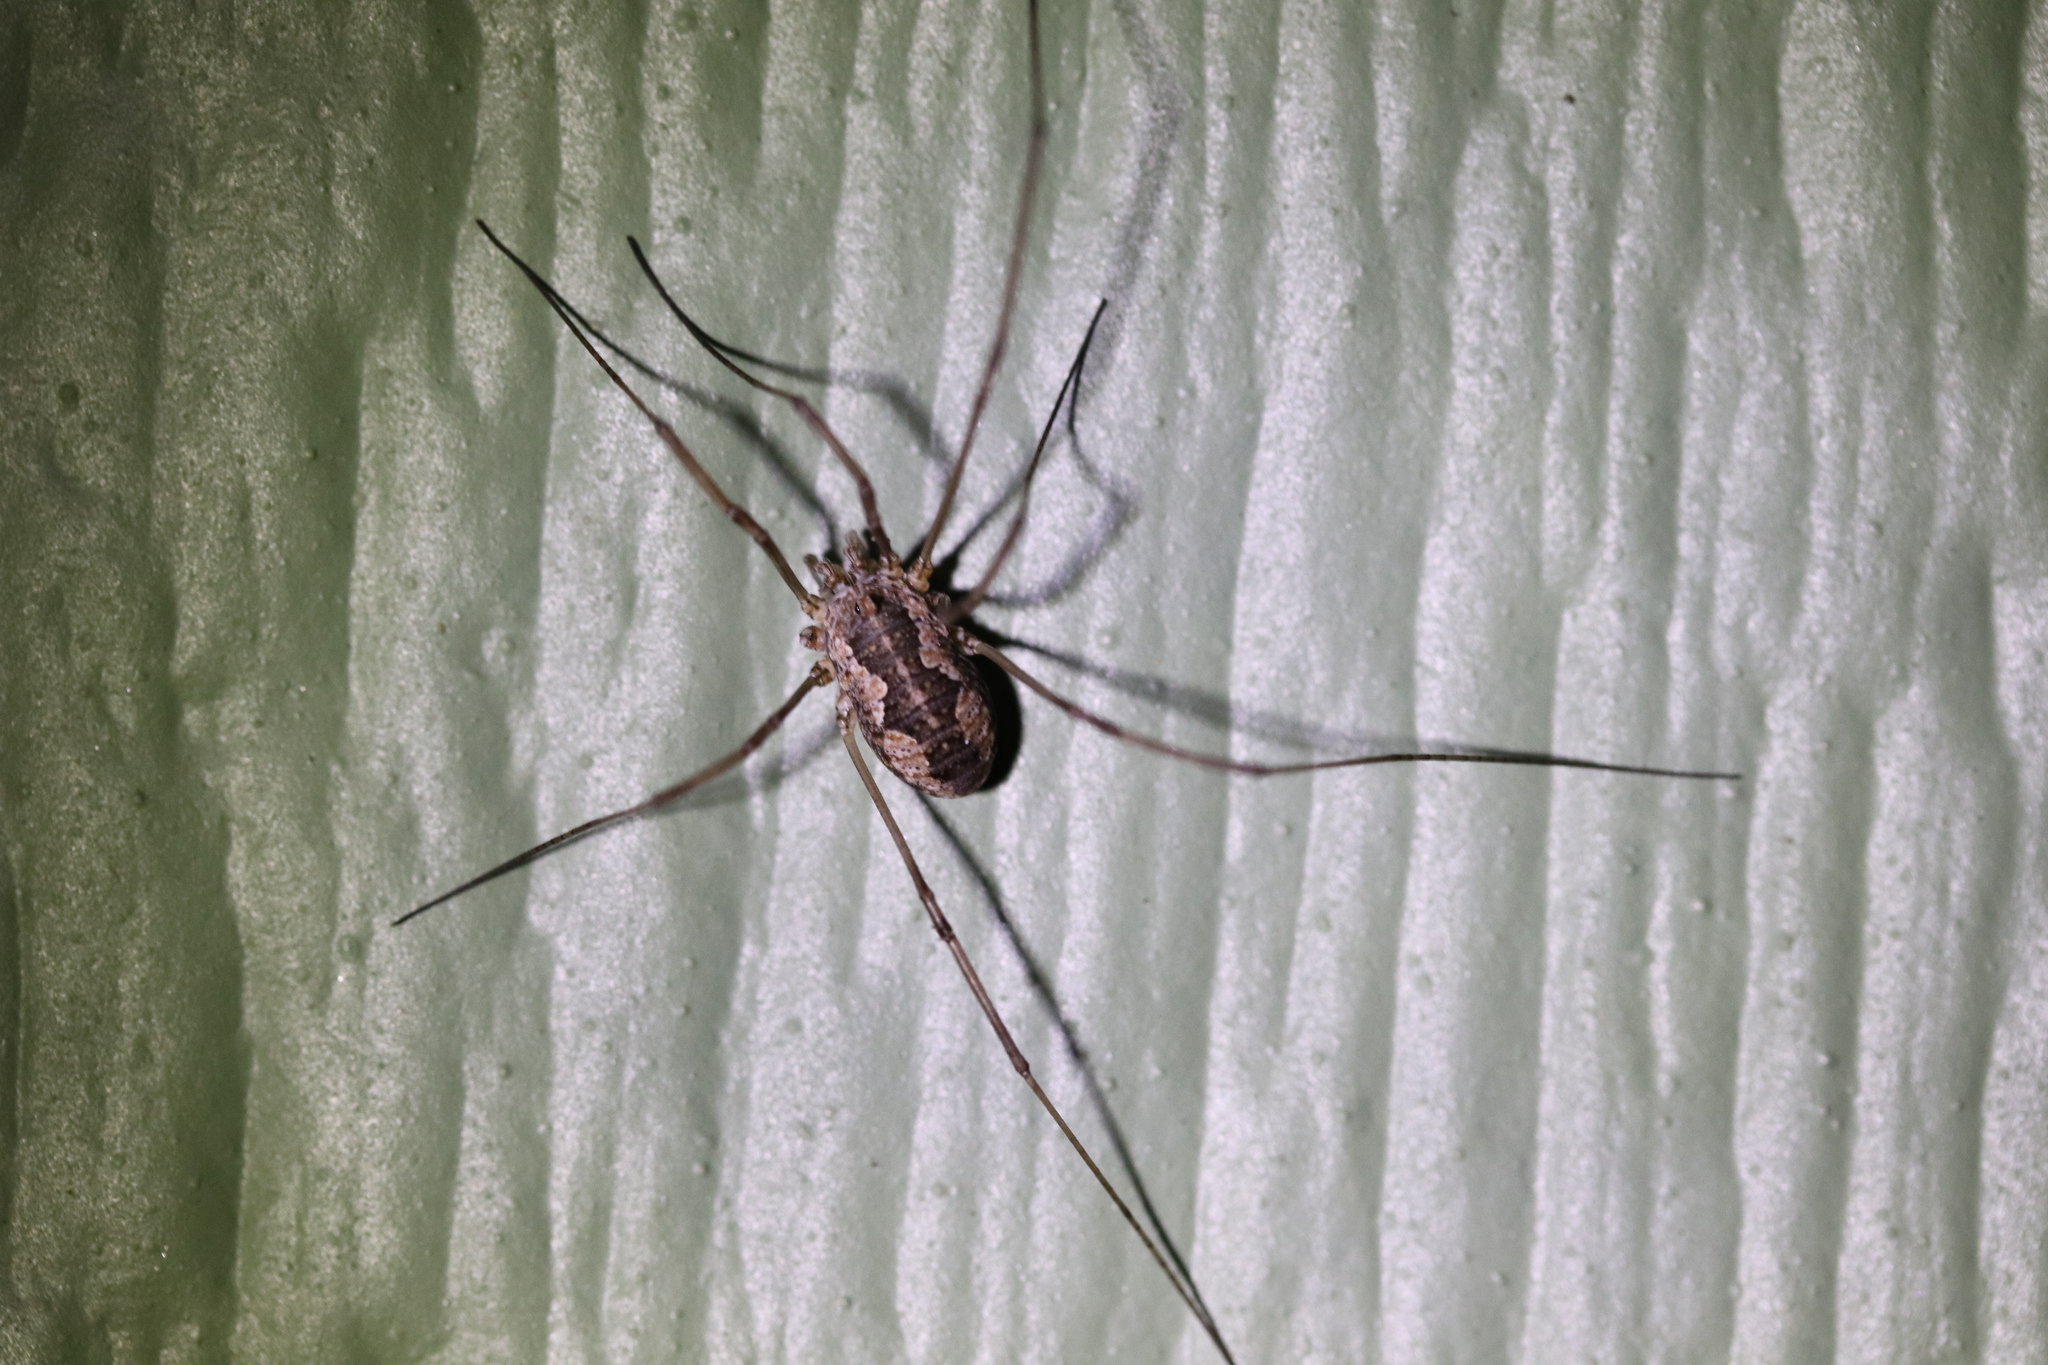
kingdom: Animalia
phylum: Arthropoda
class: Arachnida
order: Opiliones
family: Phalangiidae
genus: Phalangium
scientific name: Phalangium opilio
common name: Daddy longleg
